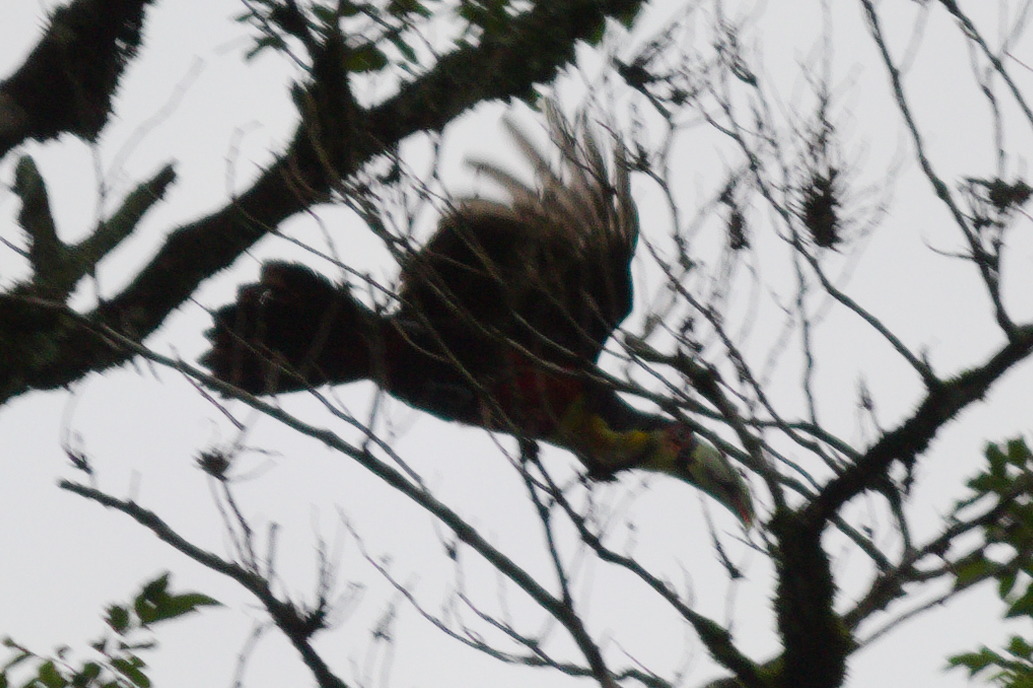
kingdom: Animalia
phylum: Chordata
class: Aves
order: Piciformes
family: Ramphastidae
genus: Ramphastos
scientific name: Ramphastos dicolorus
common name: Green-billed toucan
